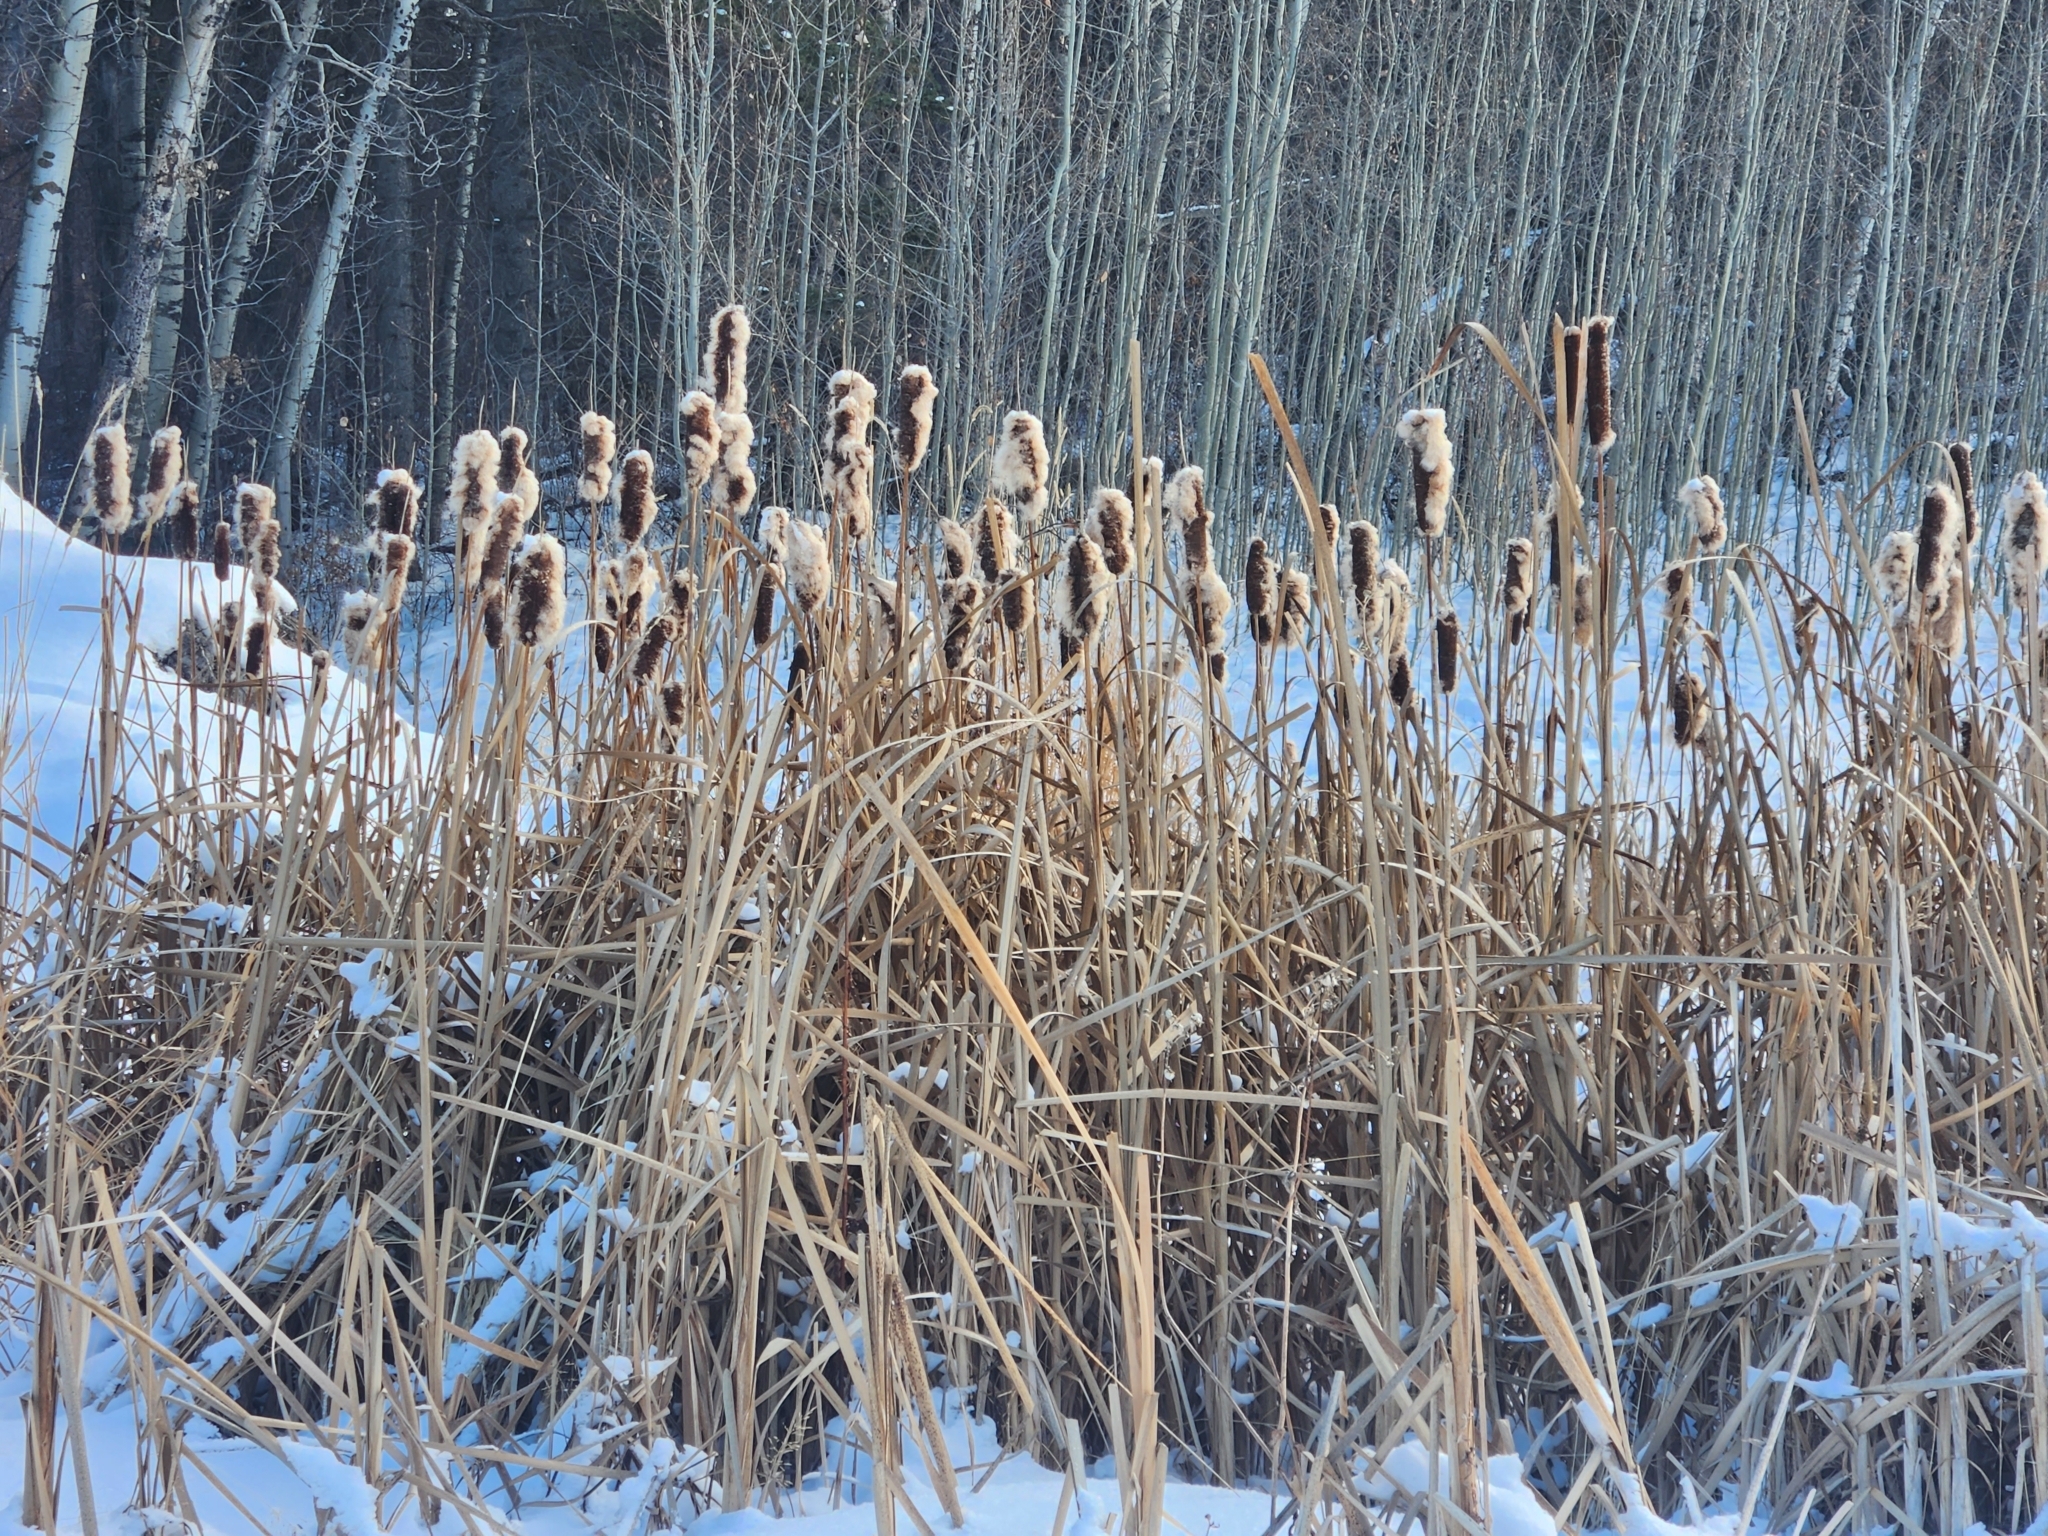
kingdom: Plantae
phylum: Tracheophyta
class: Liliopsida
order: Poales
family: Typhaceae
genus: Typha
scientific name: Typha latifolia
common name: Broadleaf cattail
